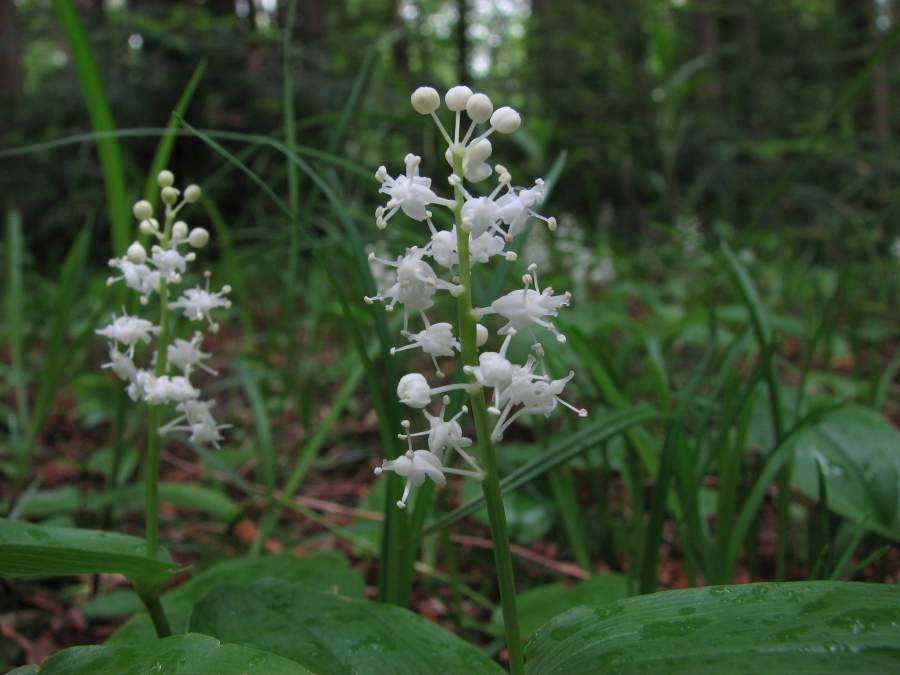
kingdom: Plantae
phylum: Tracheophyta
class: Liliopsida
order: Asparagales
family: Asparagaceae
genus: Maianthemum
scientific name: Maianthemum canadense
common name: False lily-of-the-valley
